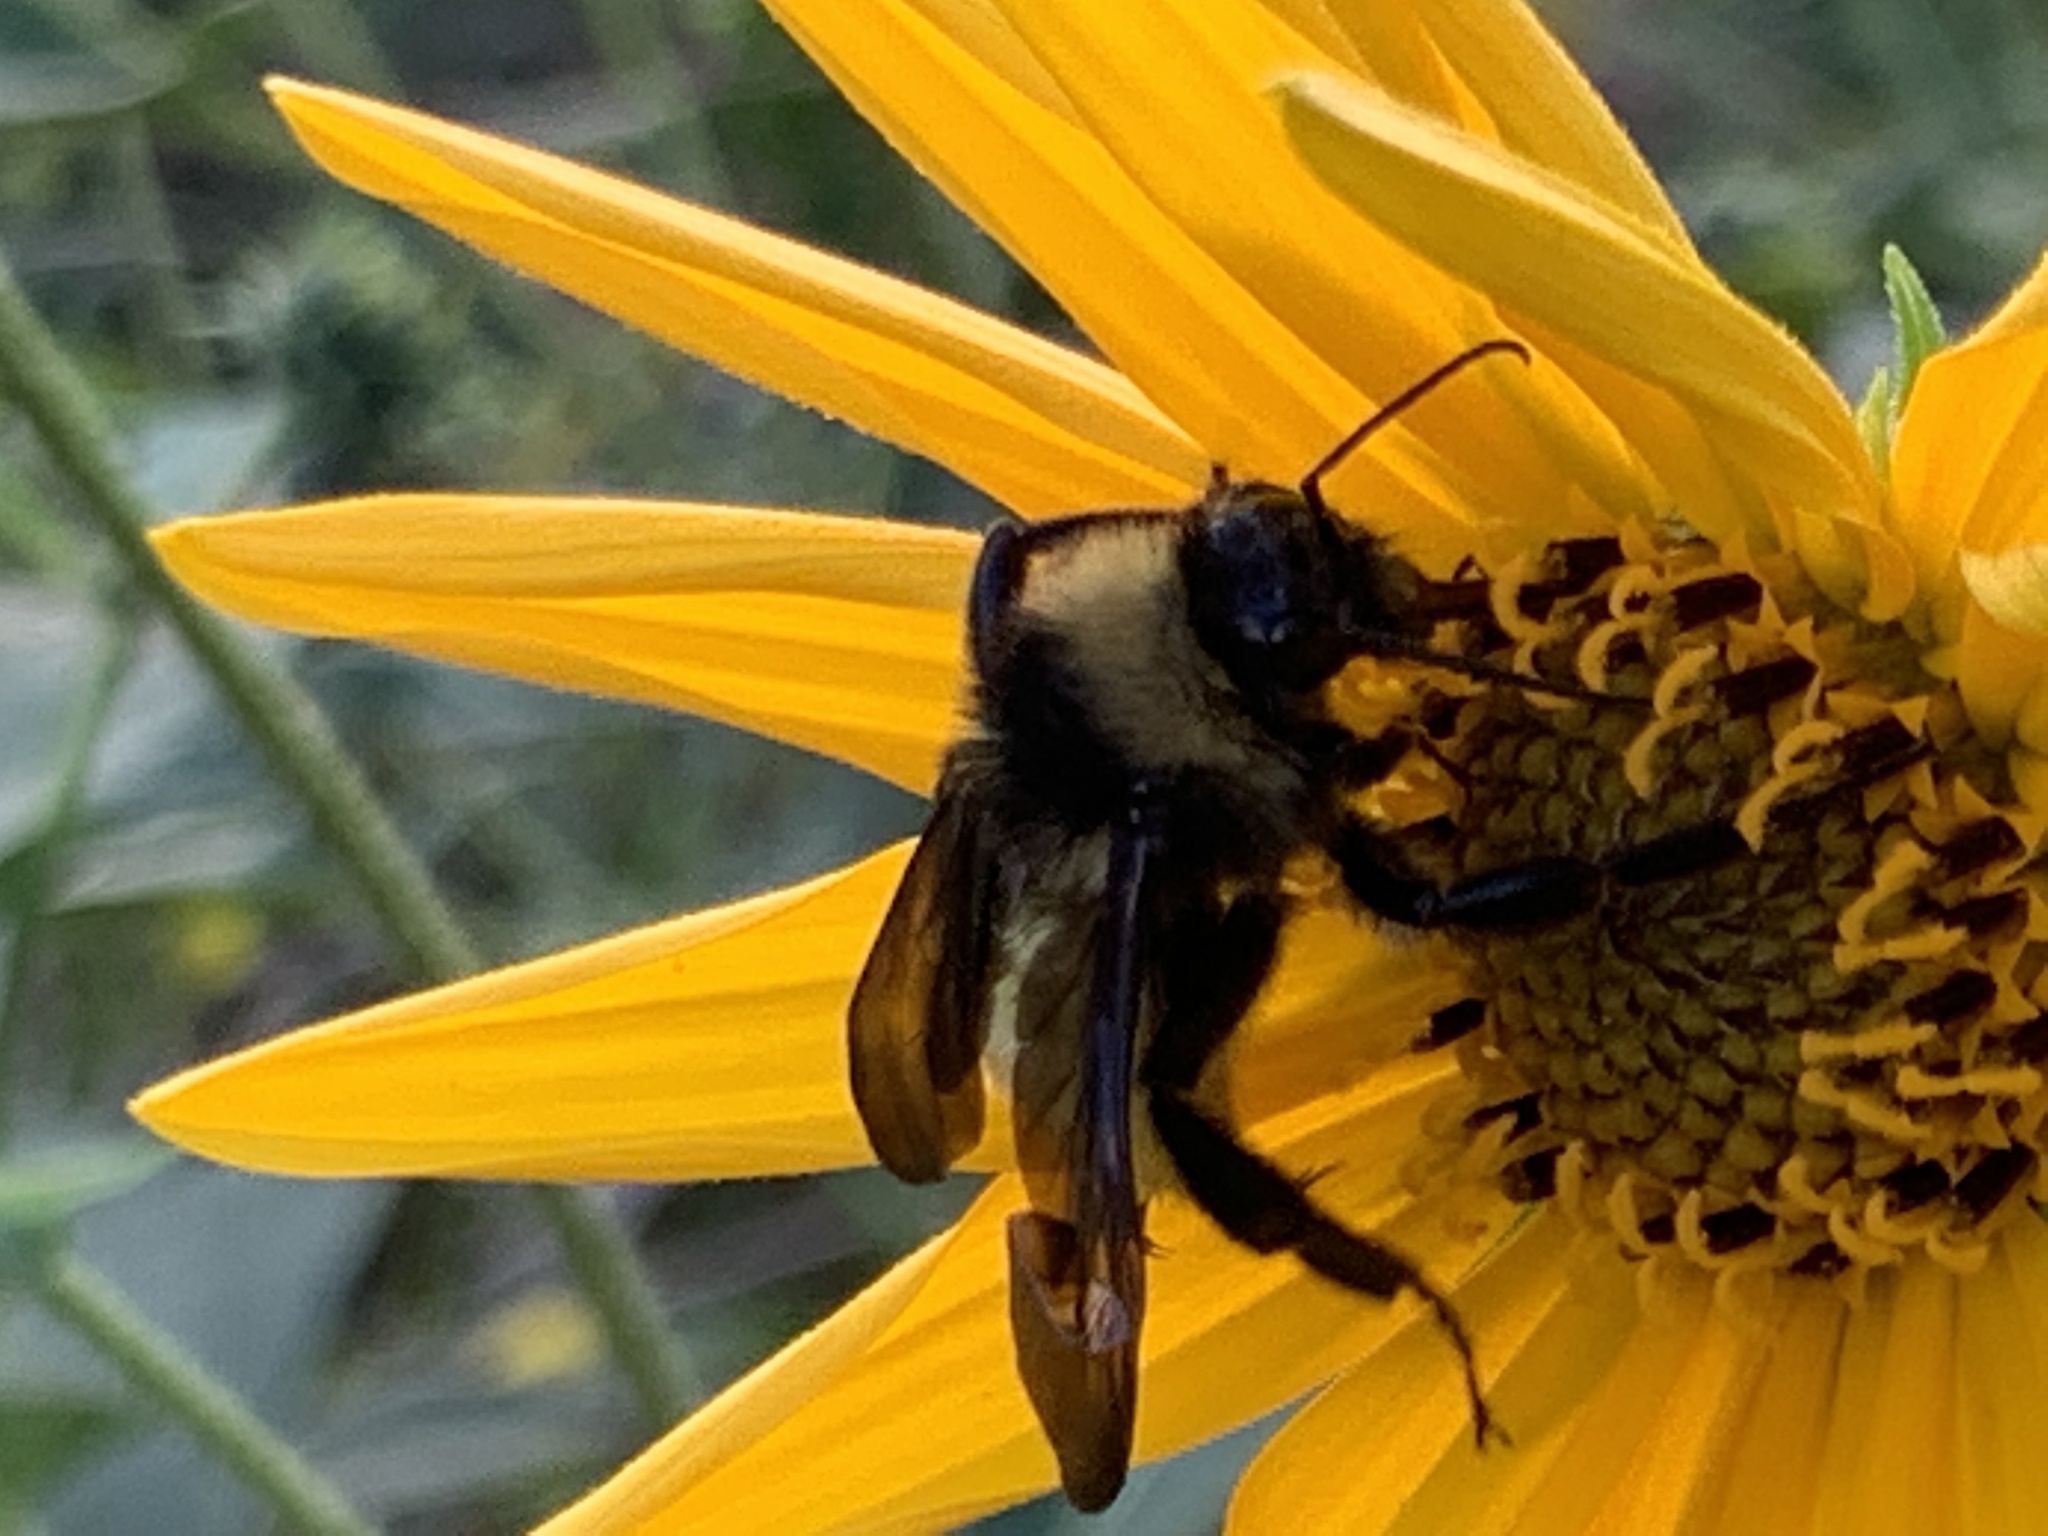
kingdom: Animalia
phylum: Arthropoda
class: Insecta
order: Hymenoptera
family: Apidae
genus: Bombus
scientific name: Bombus pensylvanicus
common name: Bumble bee
